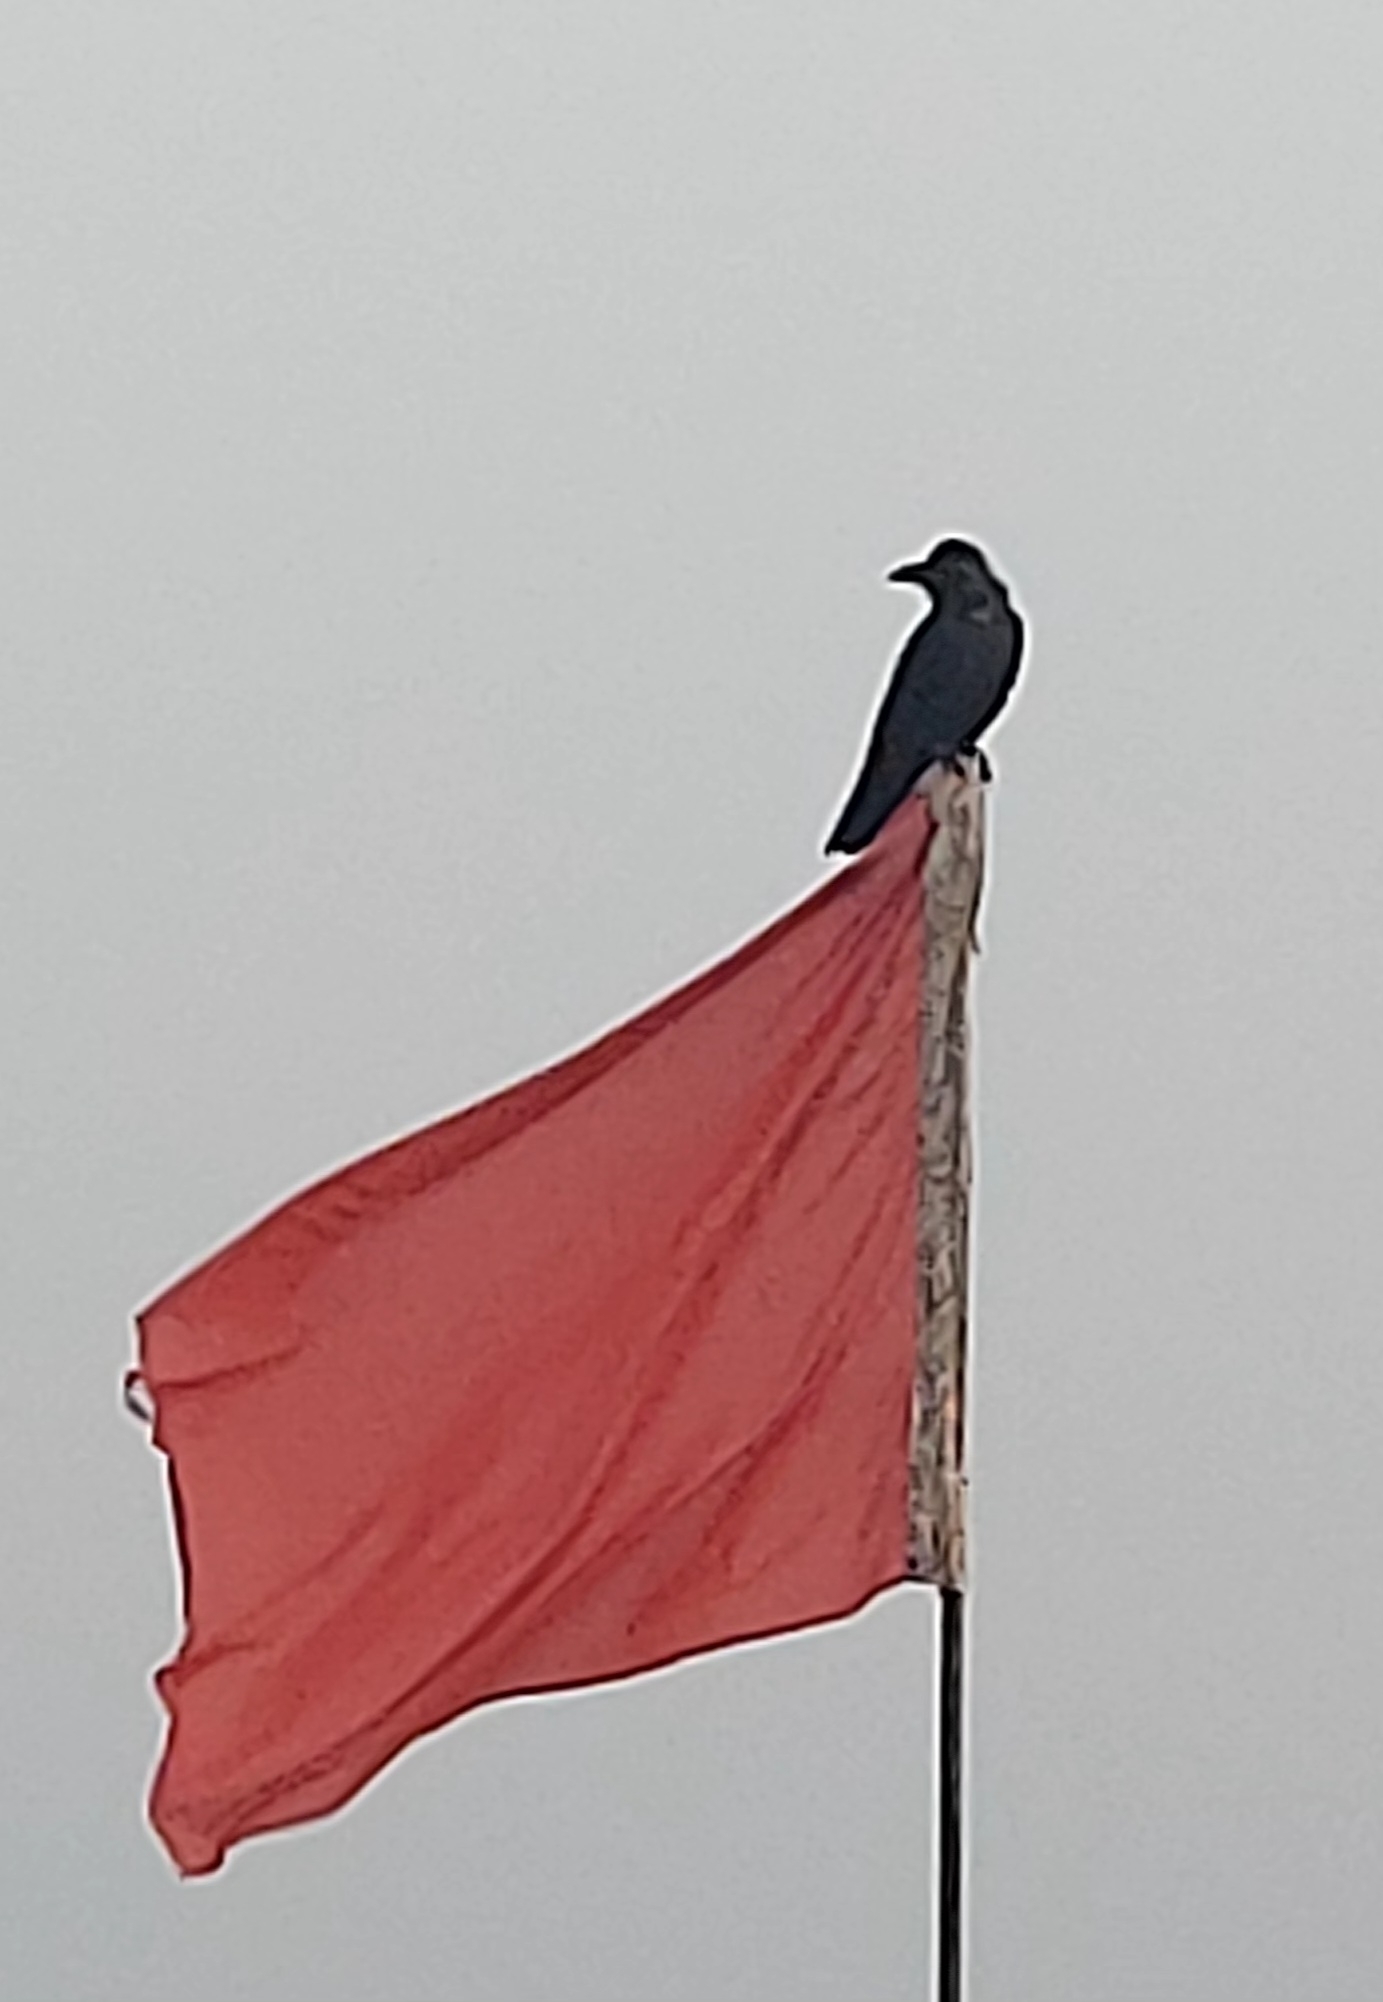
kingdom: Animalia
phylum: Chordata
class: Aves
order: Passeriformes
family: Corvidae
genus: Corvus
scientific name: Corvus splendens
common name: House crow
